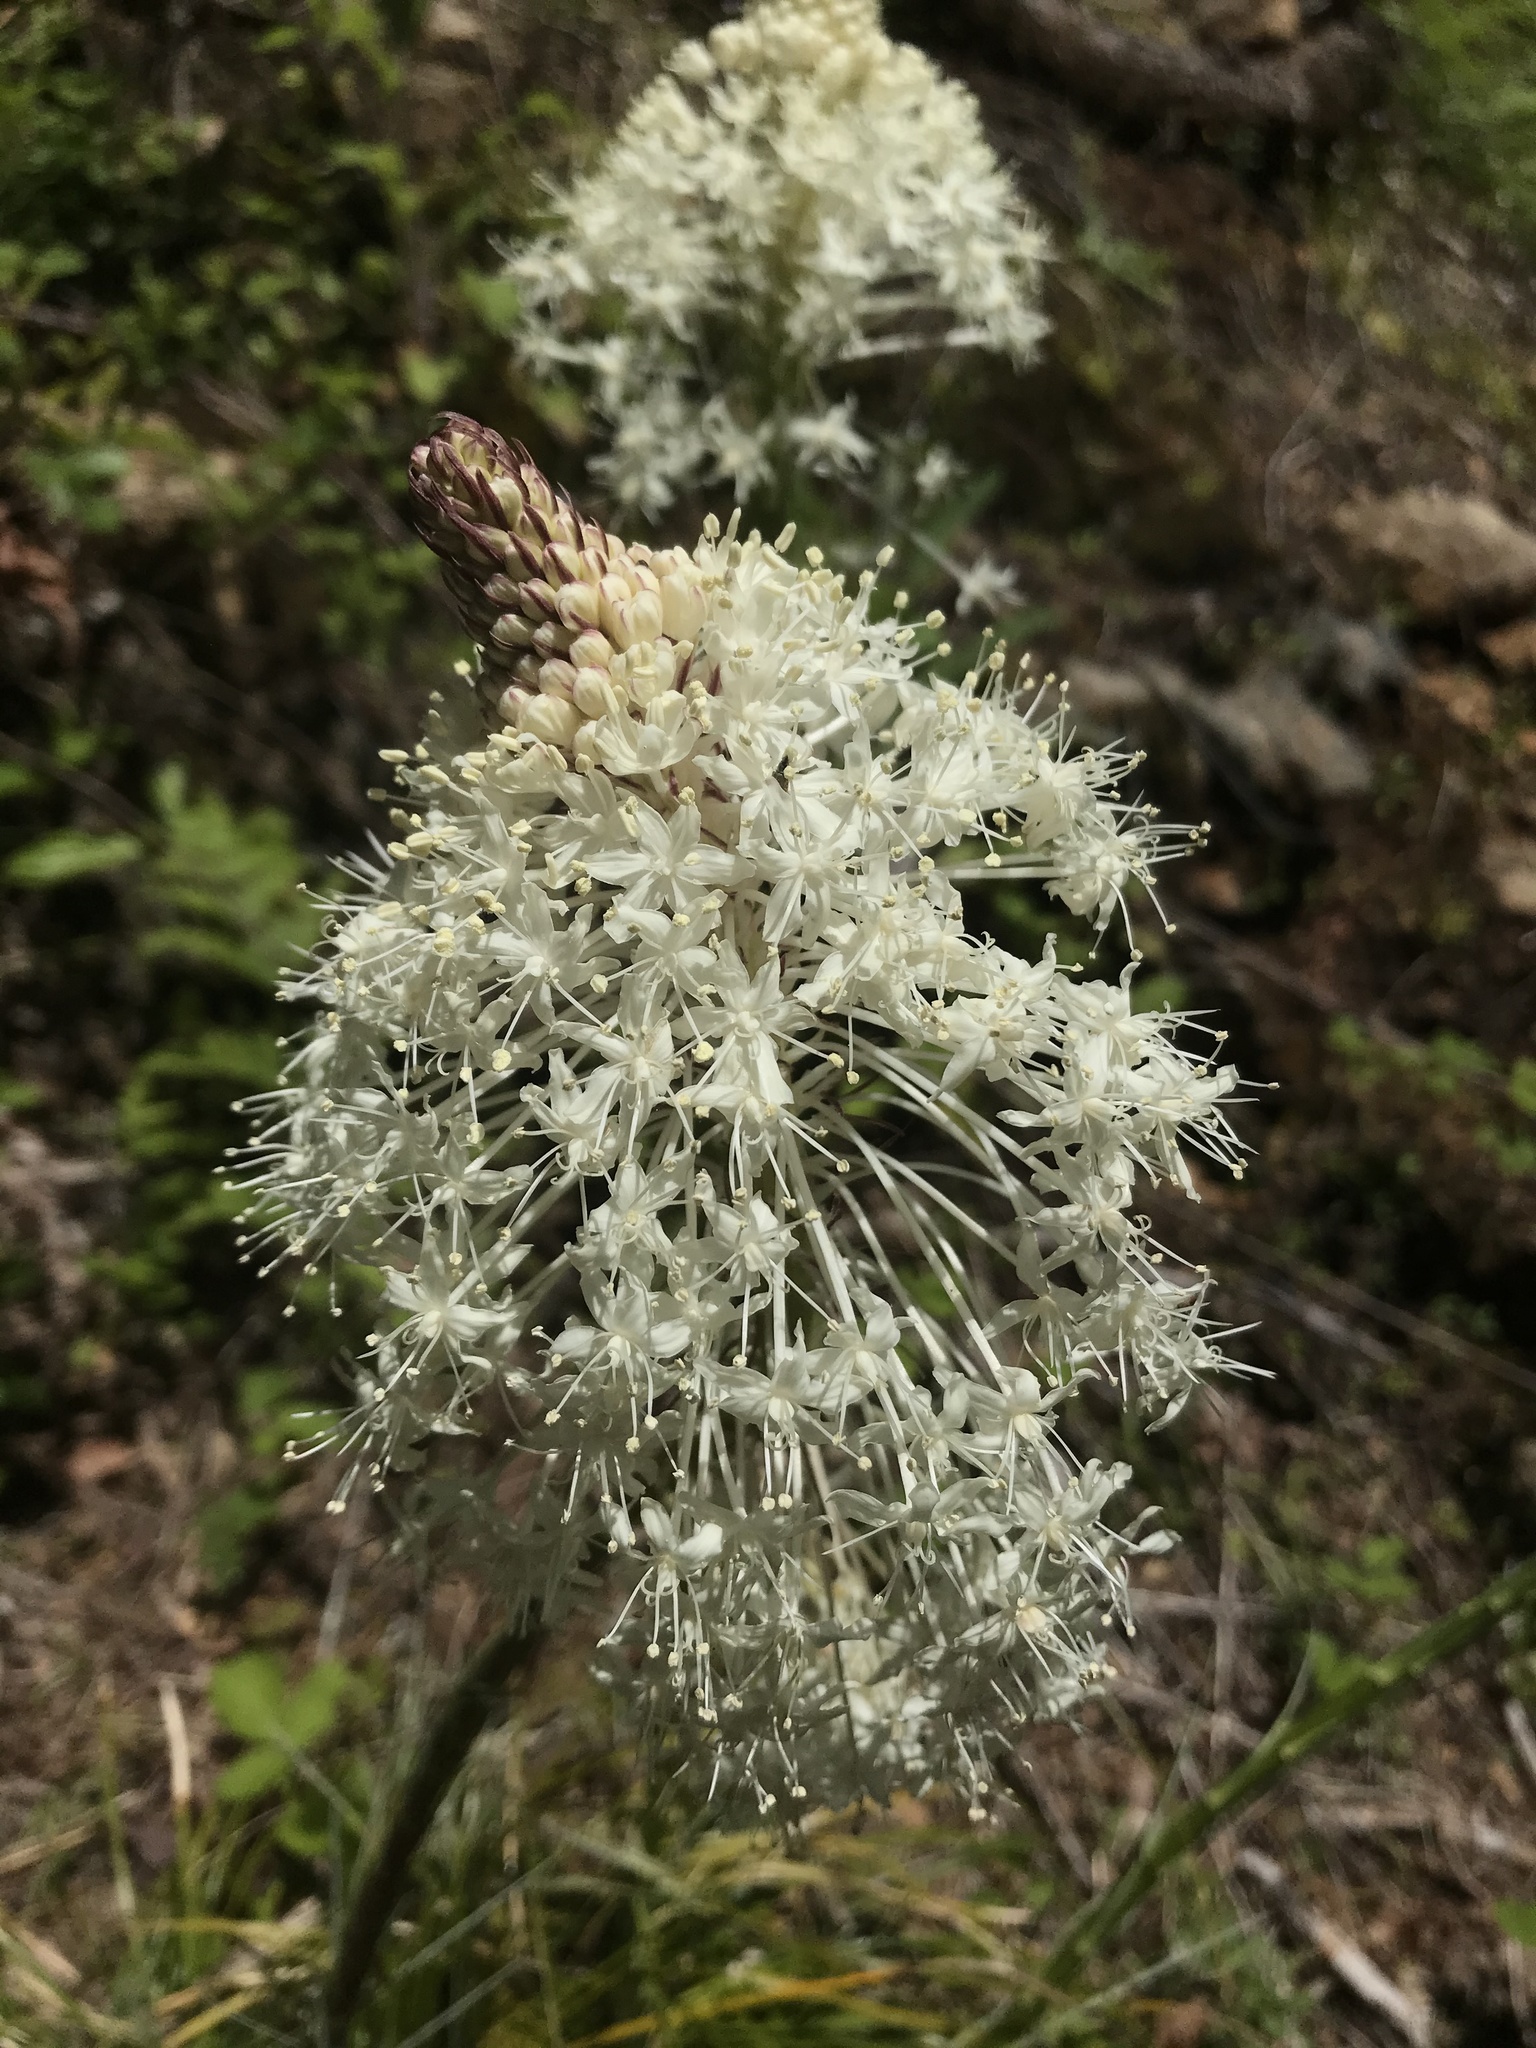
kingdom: Plantae
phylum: Tracheophyta
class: Liliopsida
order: Liliales
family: Melanthiaceae
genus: Xerophyllum
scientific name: Xerophyllum tenax
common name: Bear-grass
